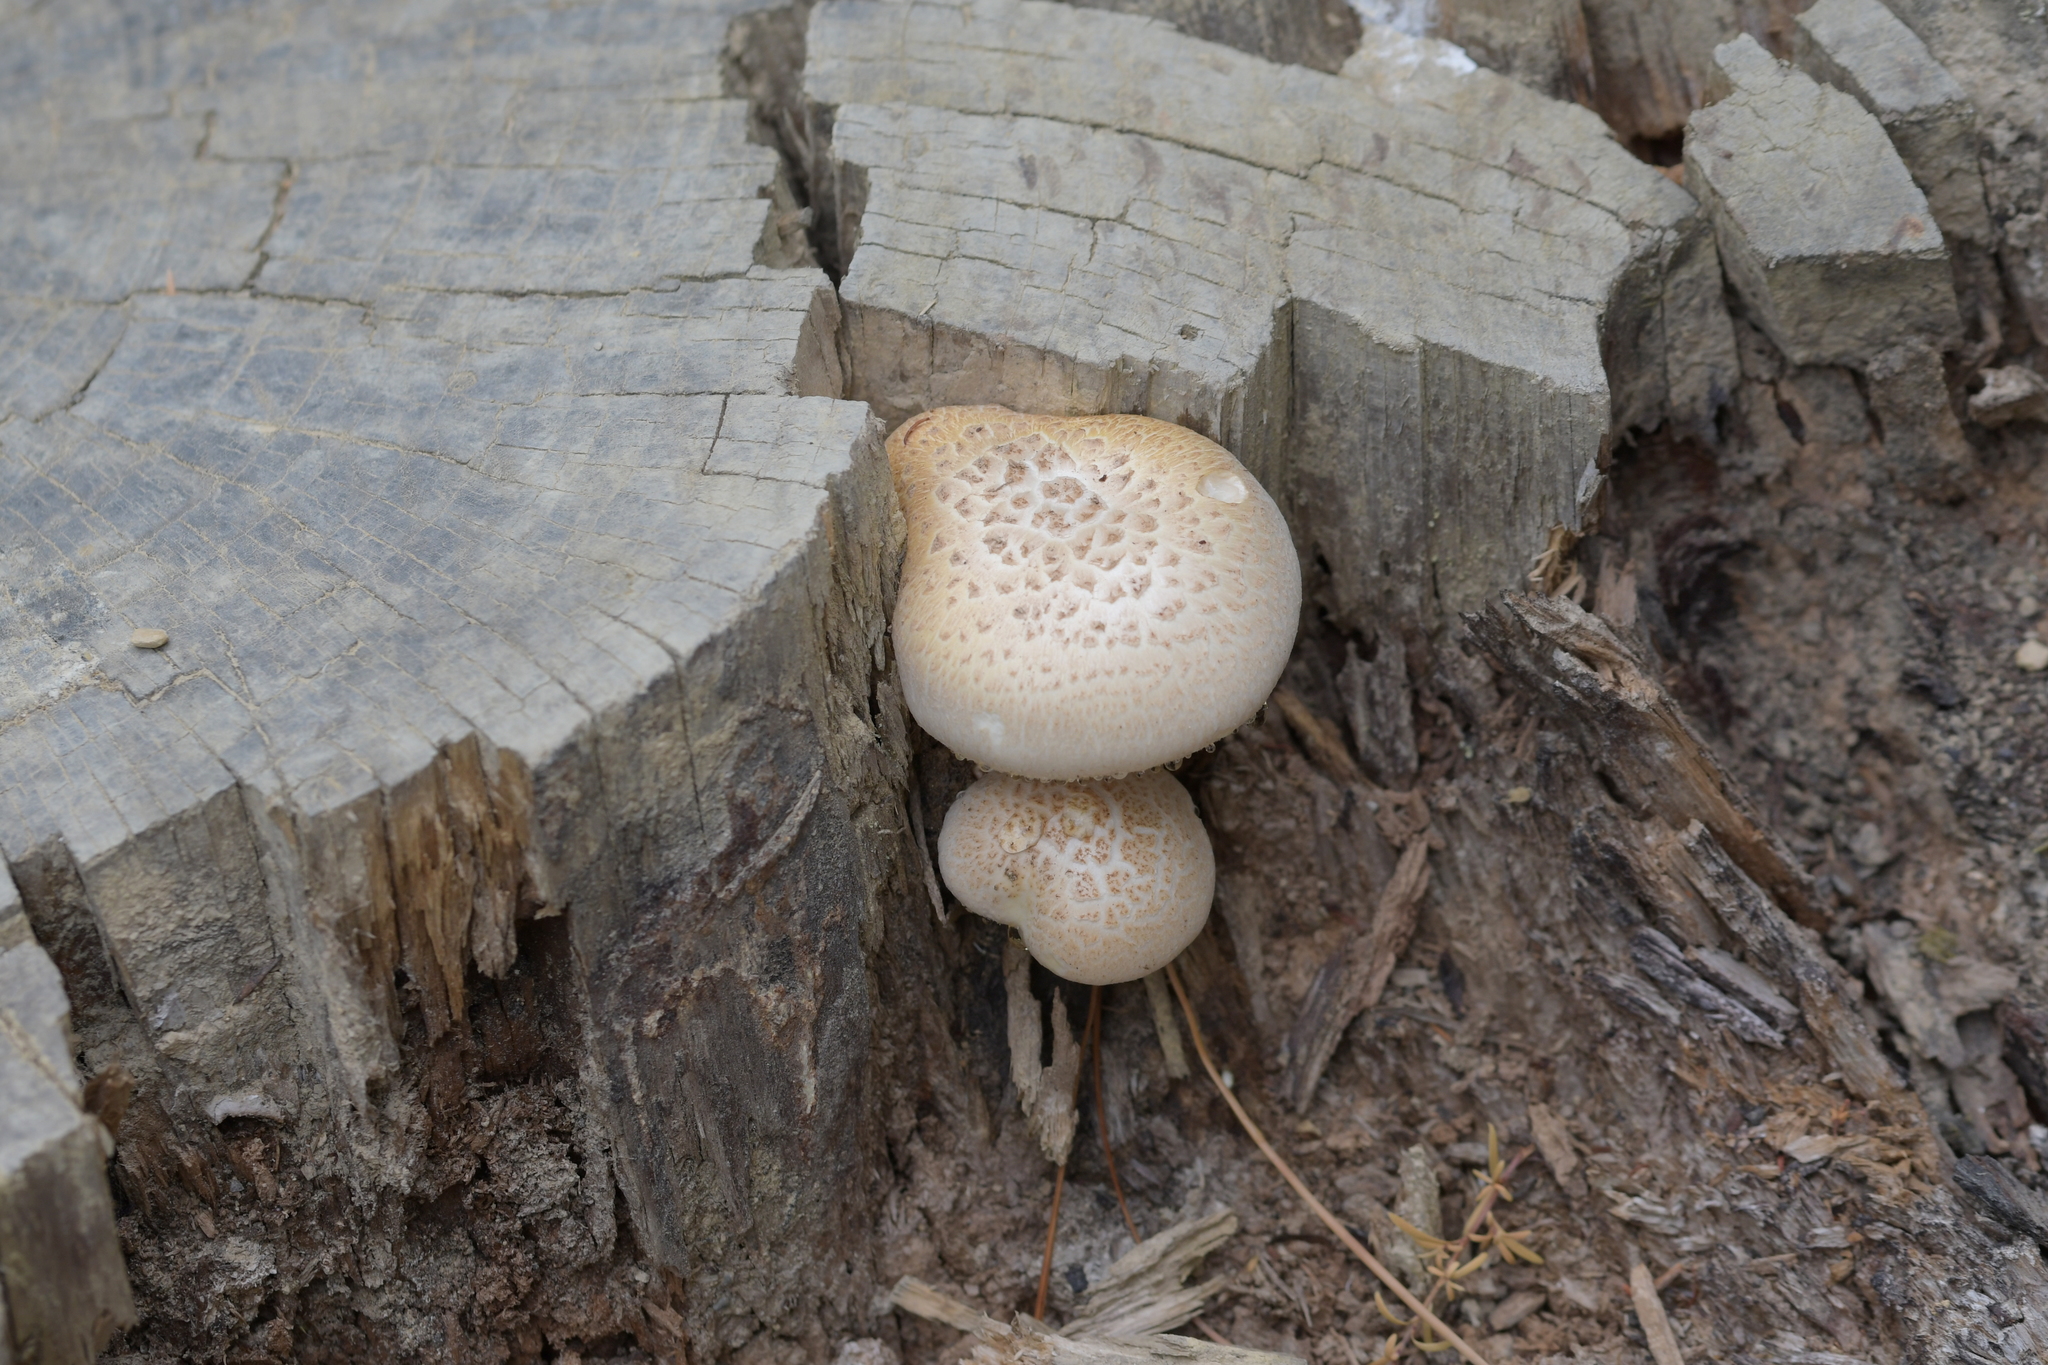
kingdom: Fungi
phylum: Basidiomycota
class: Agaricomycetes
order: Gloeophyllales
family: Gloeophyllaceae
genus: Neolentinus
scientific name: Neolentinus lepideus
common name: Scaly sawgill
